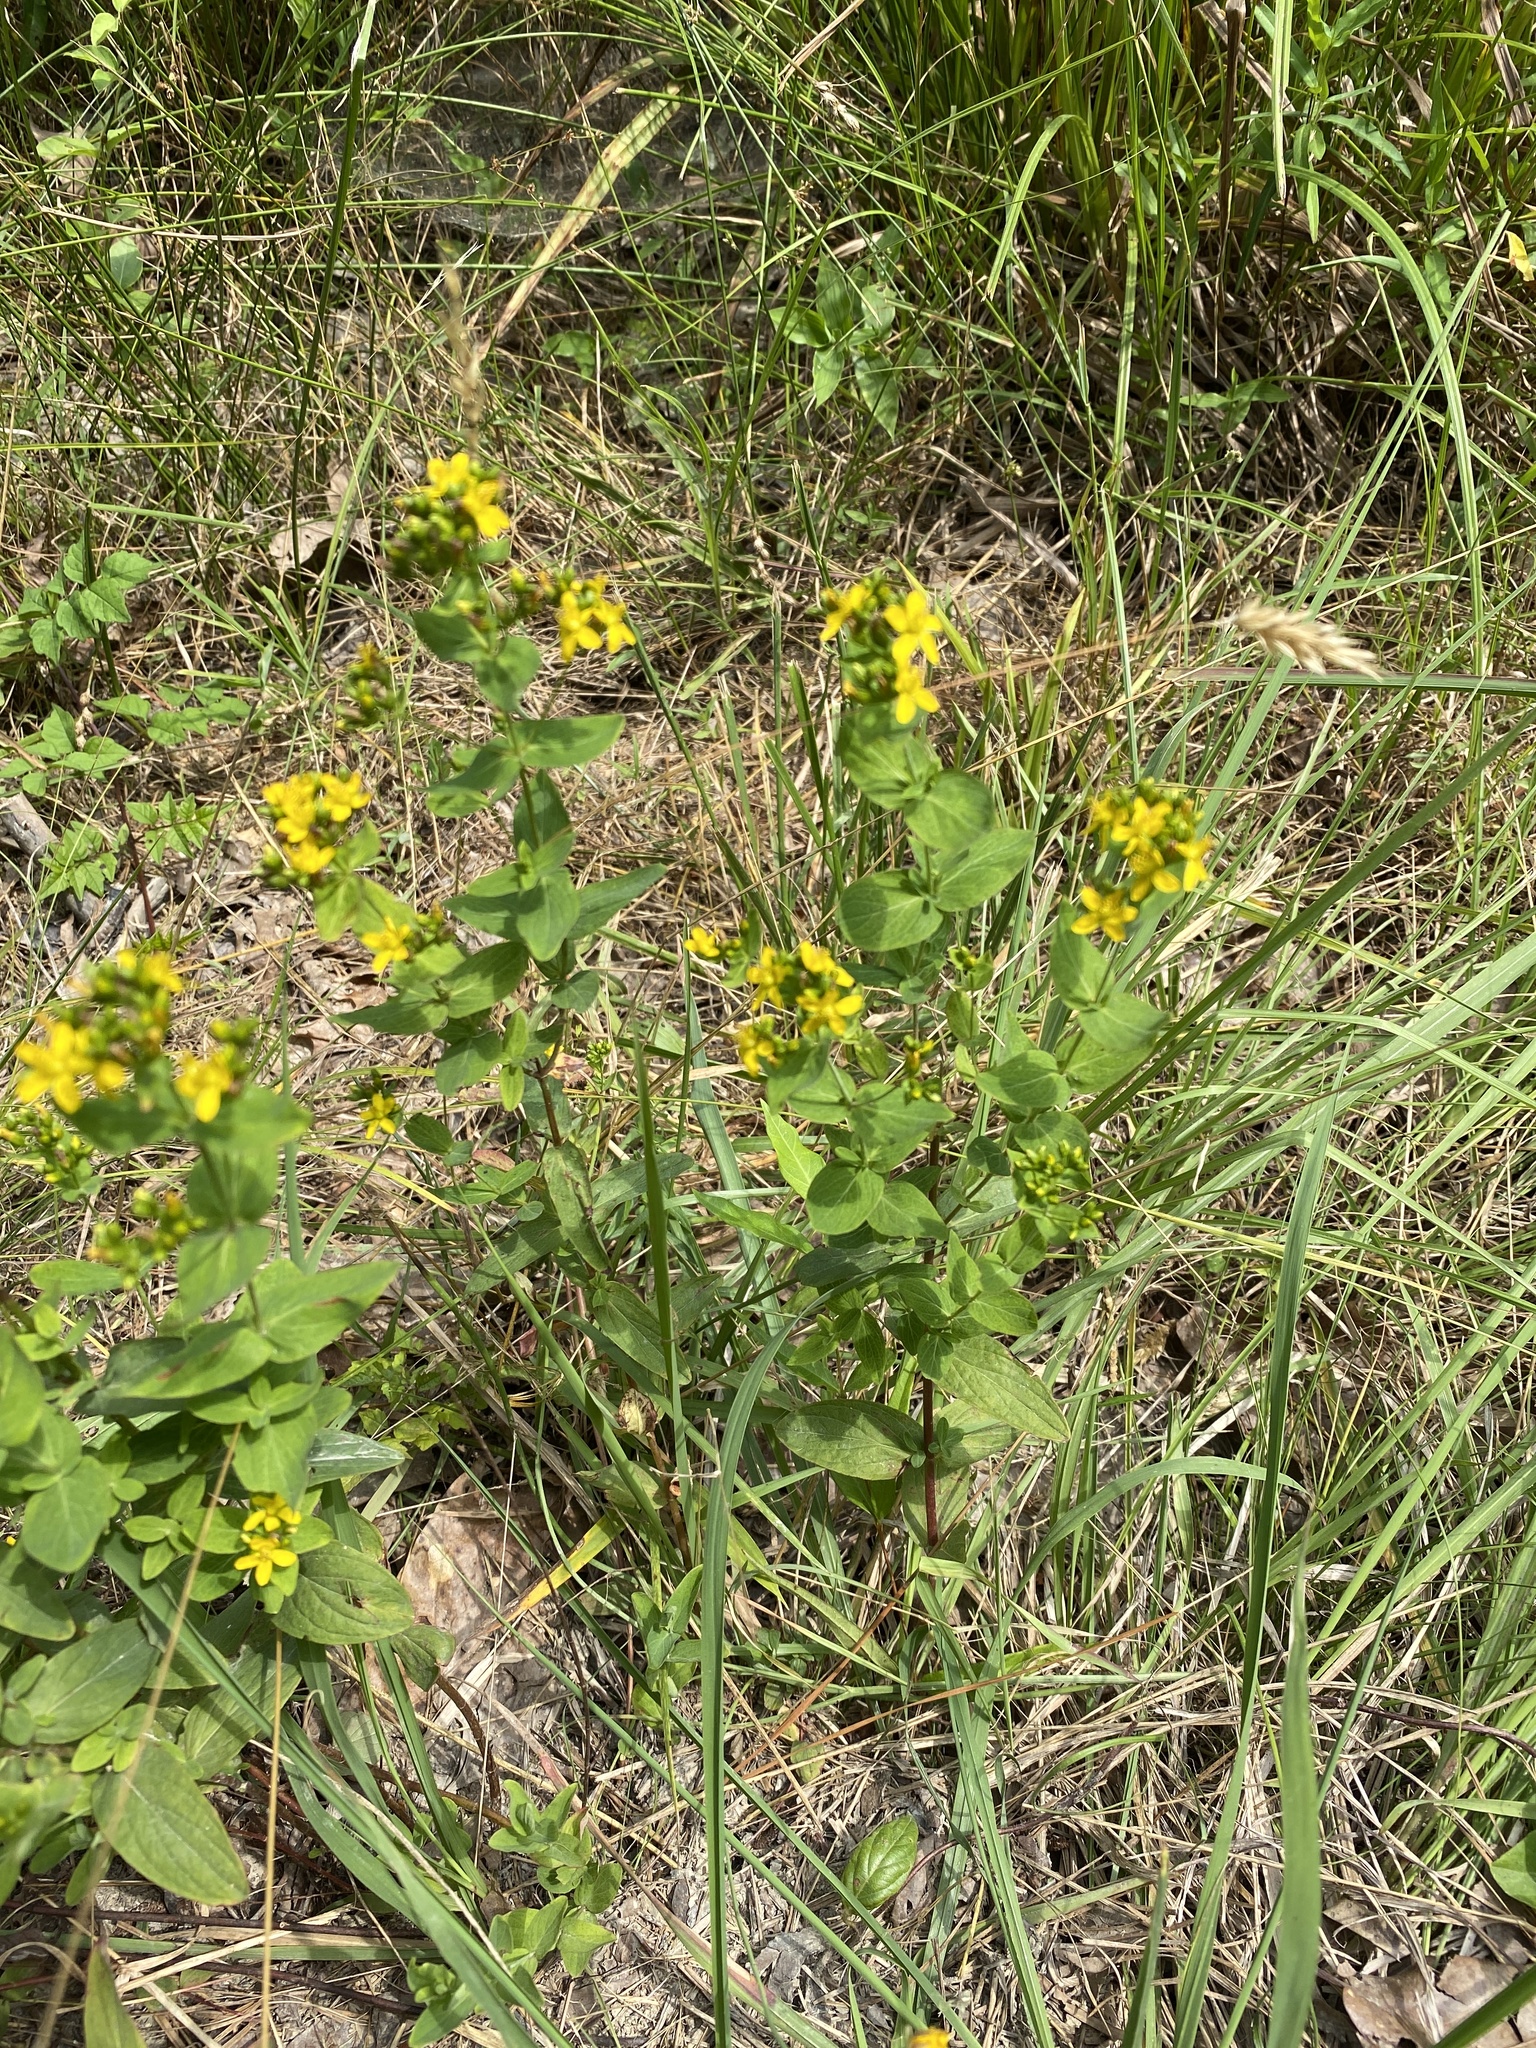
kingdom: Plantae
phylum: Tracheophyta
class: Magnoliopsida
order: Malpighiales
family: Hypericaceae
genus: Hypericum
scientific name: Hypericum punctatum
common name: Spotted st. john's-wort
